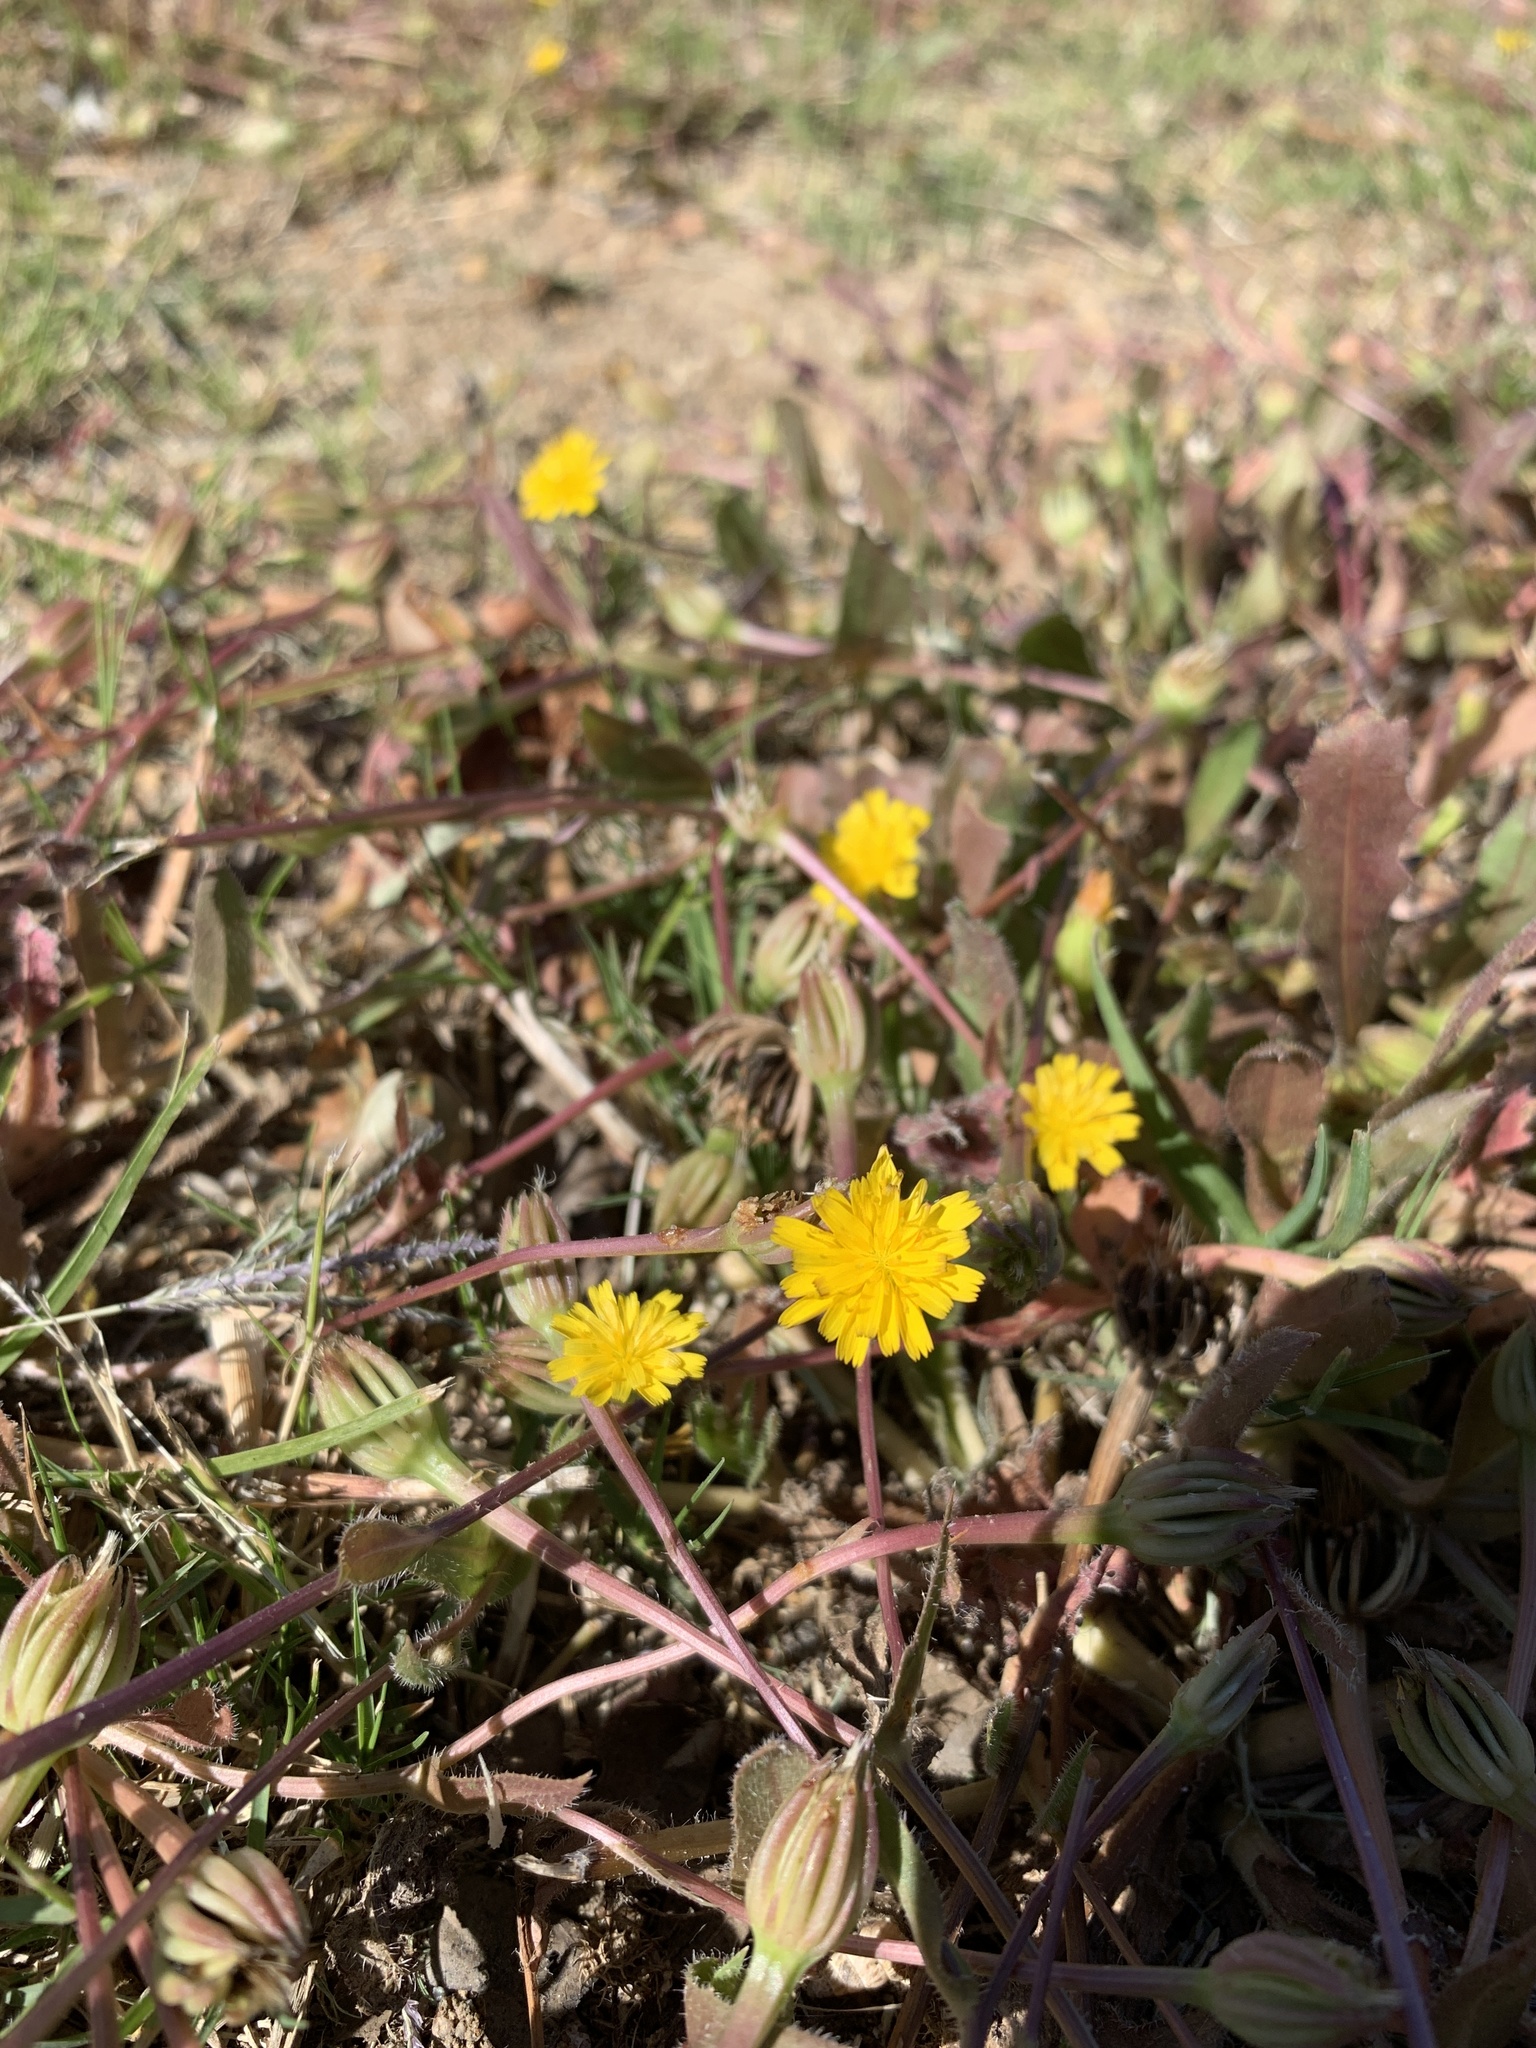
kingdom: Plantae
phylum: Tracheophyta
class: Magnoliopsida
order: Asterales
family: Asteraceae
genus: Hedypnois
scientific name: Hedypnois rhagadioloides
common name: Cretan weed
